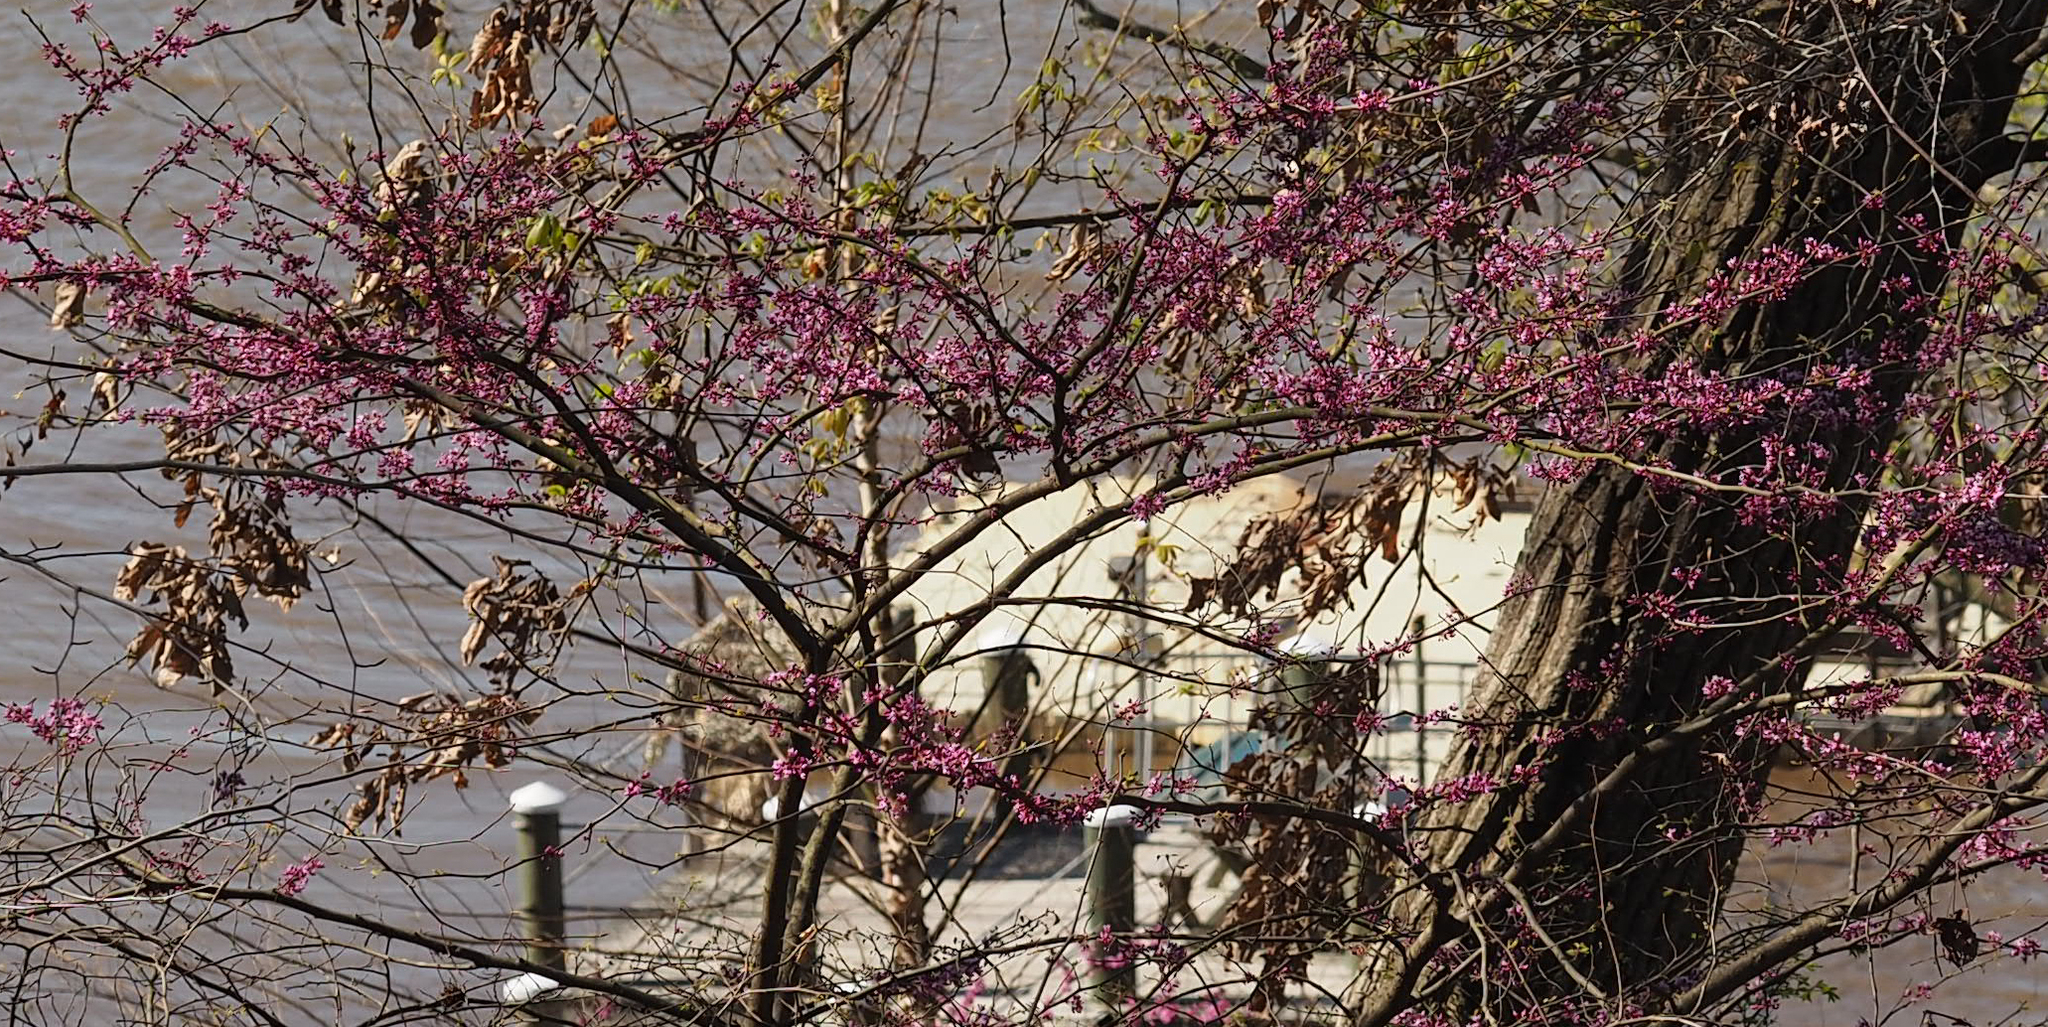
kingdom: Plantae
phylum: Tracheophyta
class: Magnoliopsida
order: Fabales
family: Fabaceae
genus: Cercis
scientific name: Cercis canadensis
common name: Eastern redbud
